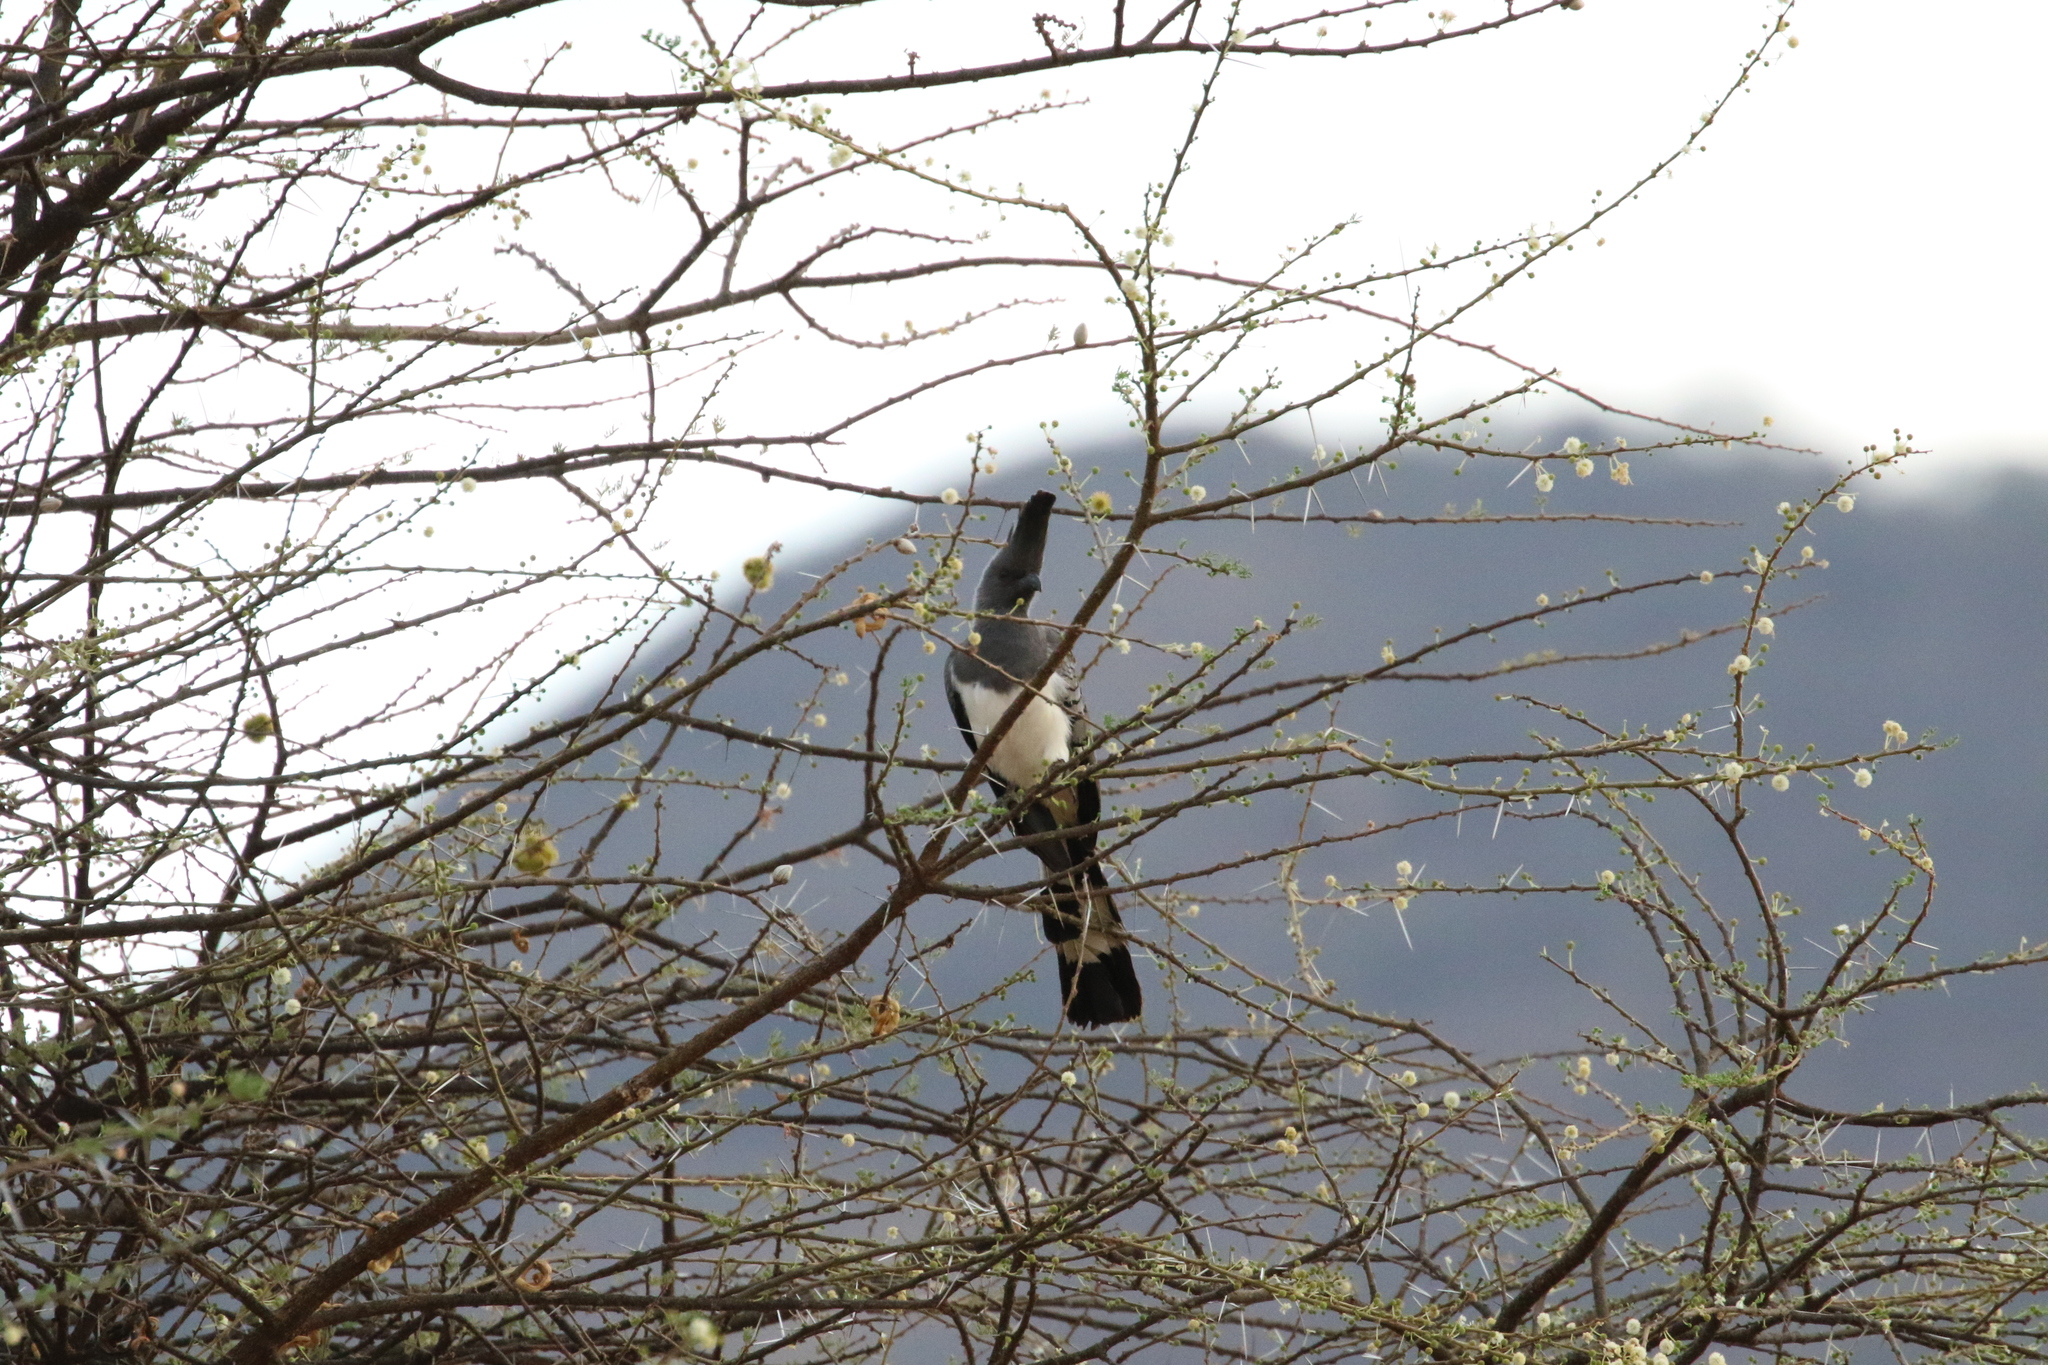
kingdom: Animalia
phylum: Chordata
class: Aves
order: Musophagiformes
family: Musophagidae
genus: Corythaixoides
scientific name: Corythaixoides leucogaster
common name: White-bellied go-away-bird
